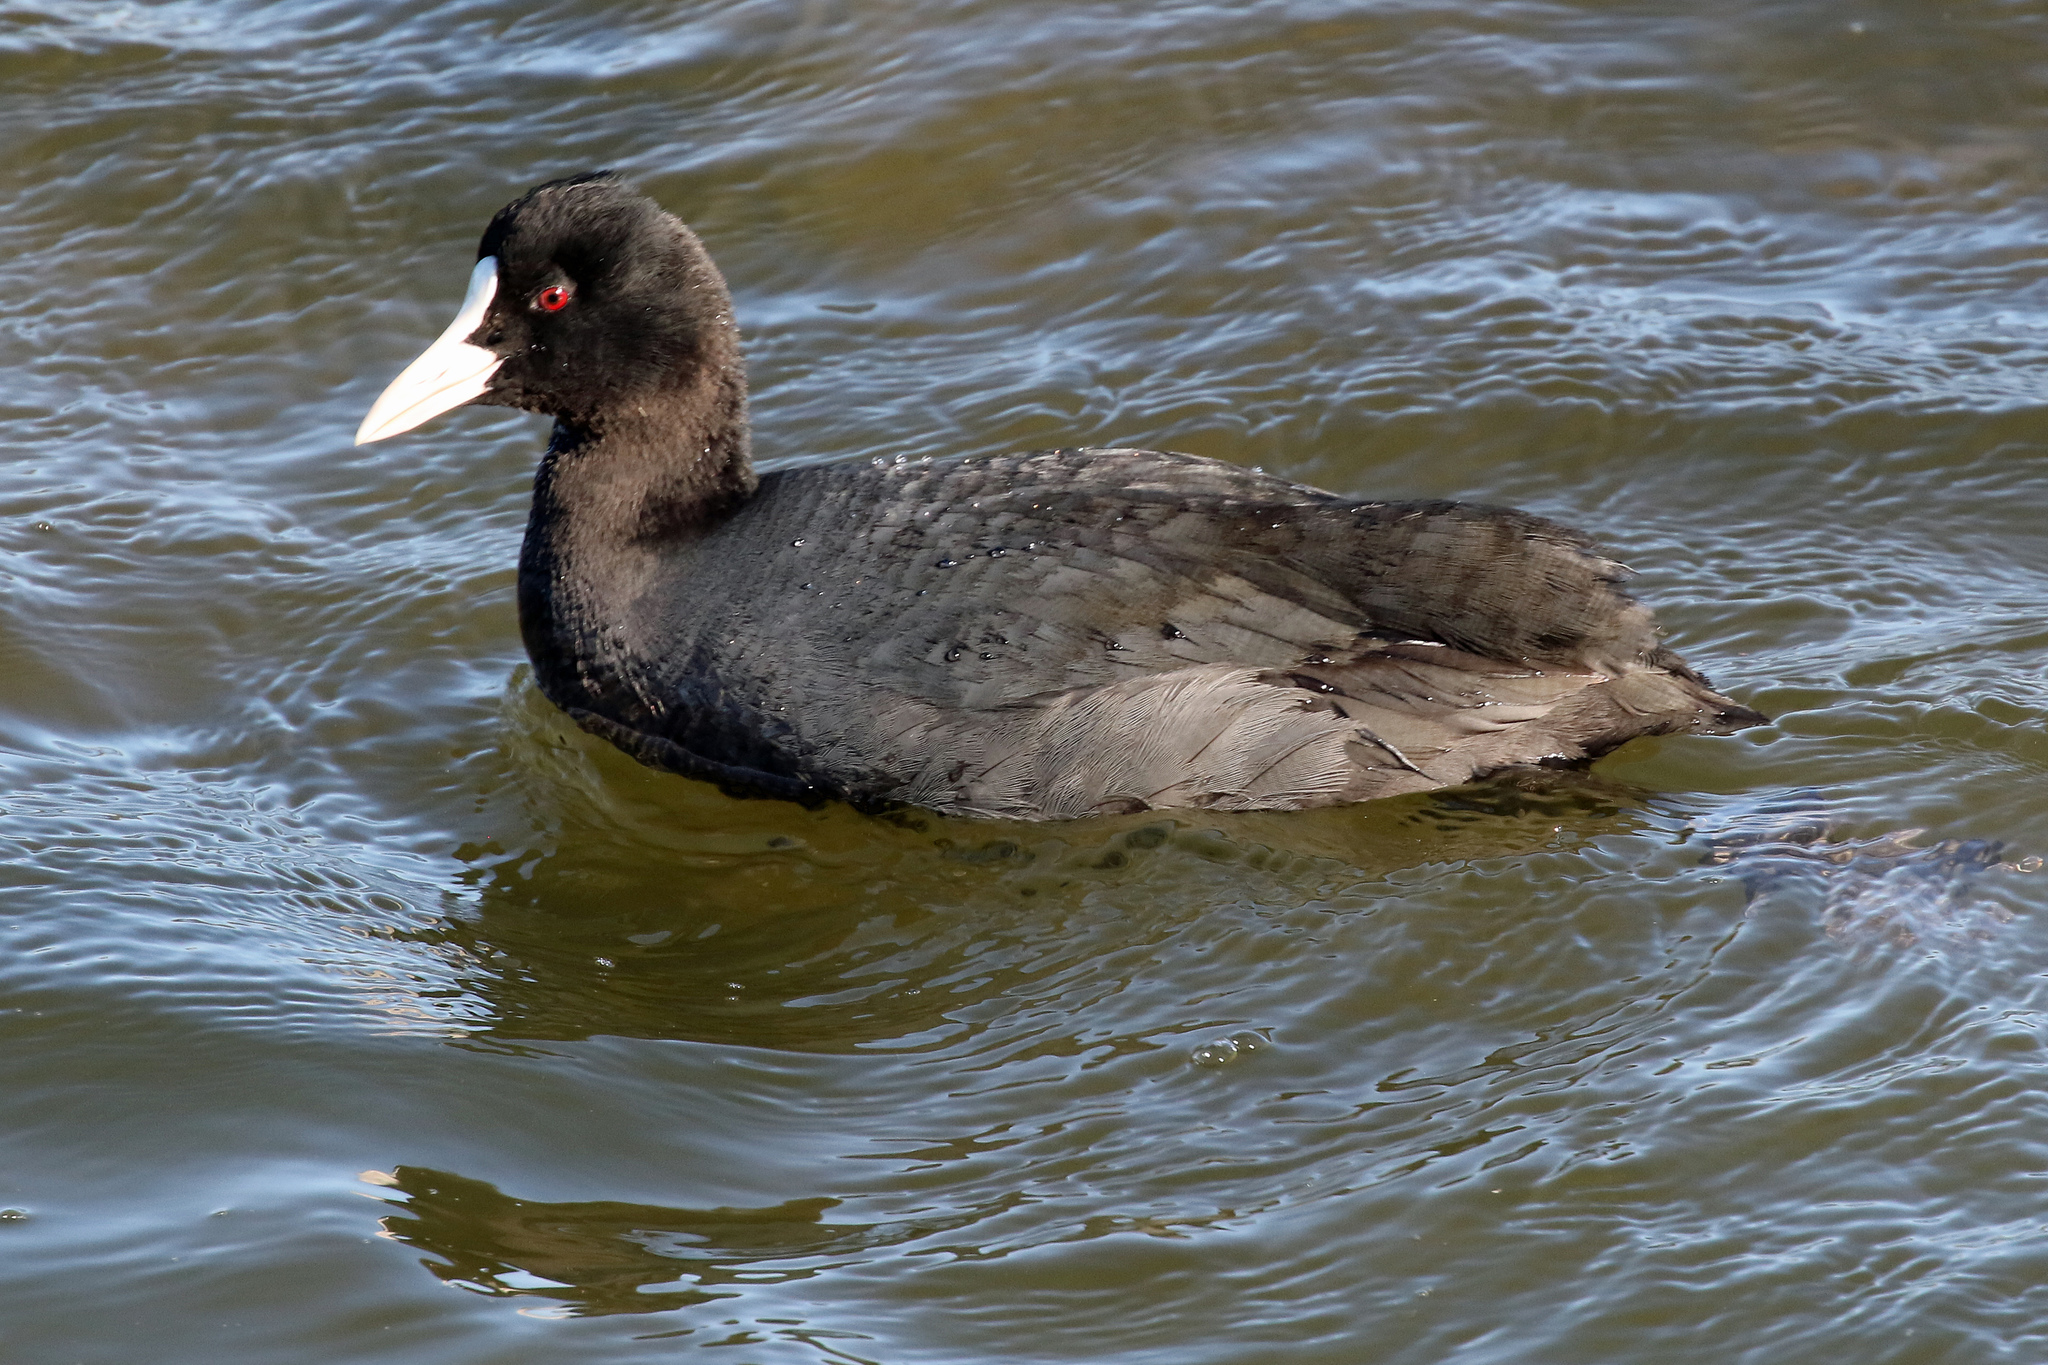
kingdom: Animalia
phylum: Chordata
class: Aves
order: Gruiformes
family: Rallidae
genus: Fulica
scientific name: Fulica atra
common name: Eurasian coot
